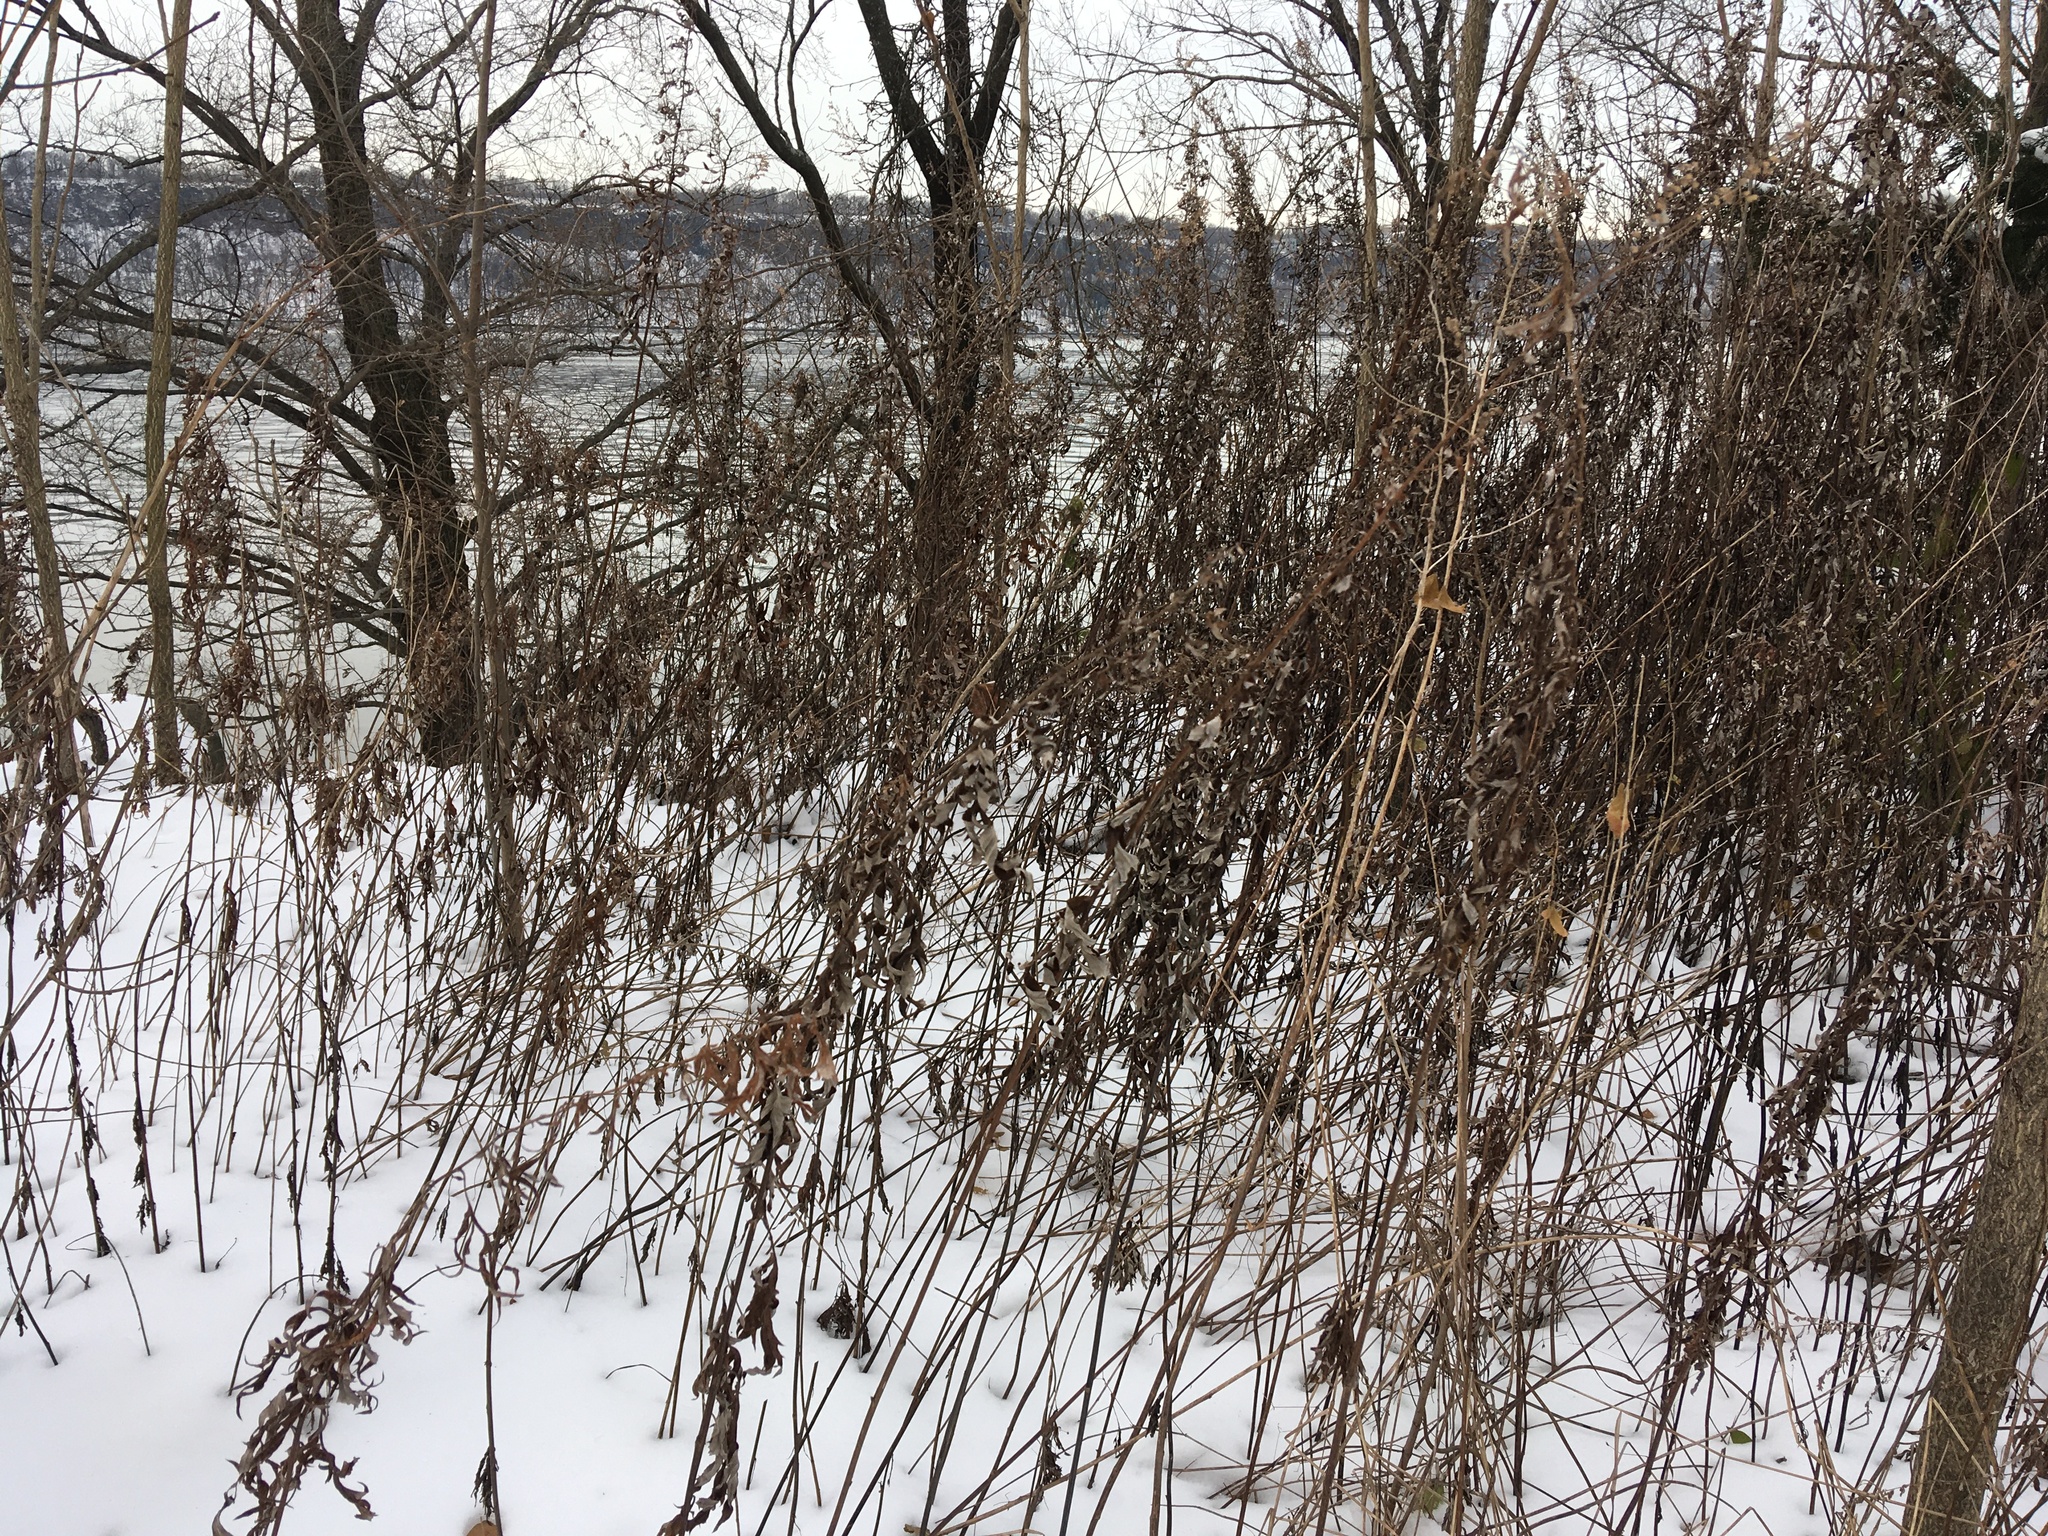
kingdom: Plantae
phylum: Tracheophyta
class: Magnoliopsida
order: Asterales
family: Asteraceae
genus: Artemisia
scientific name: Artemisia vulgaris
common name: Mugwort
